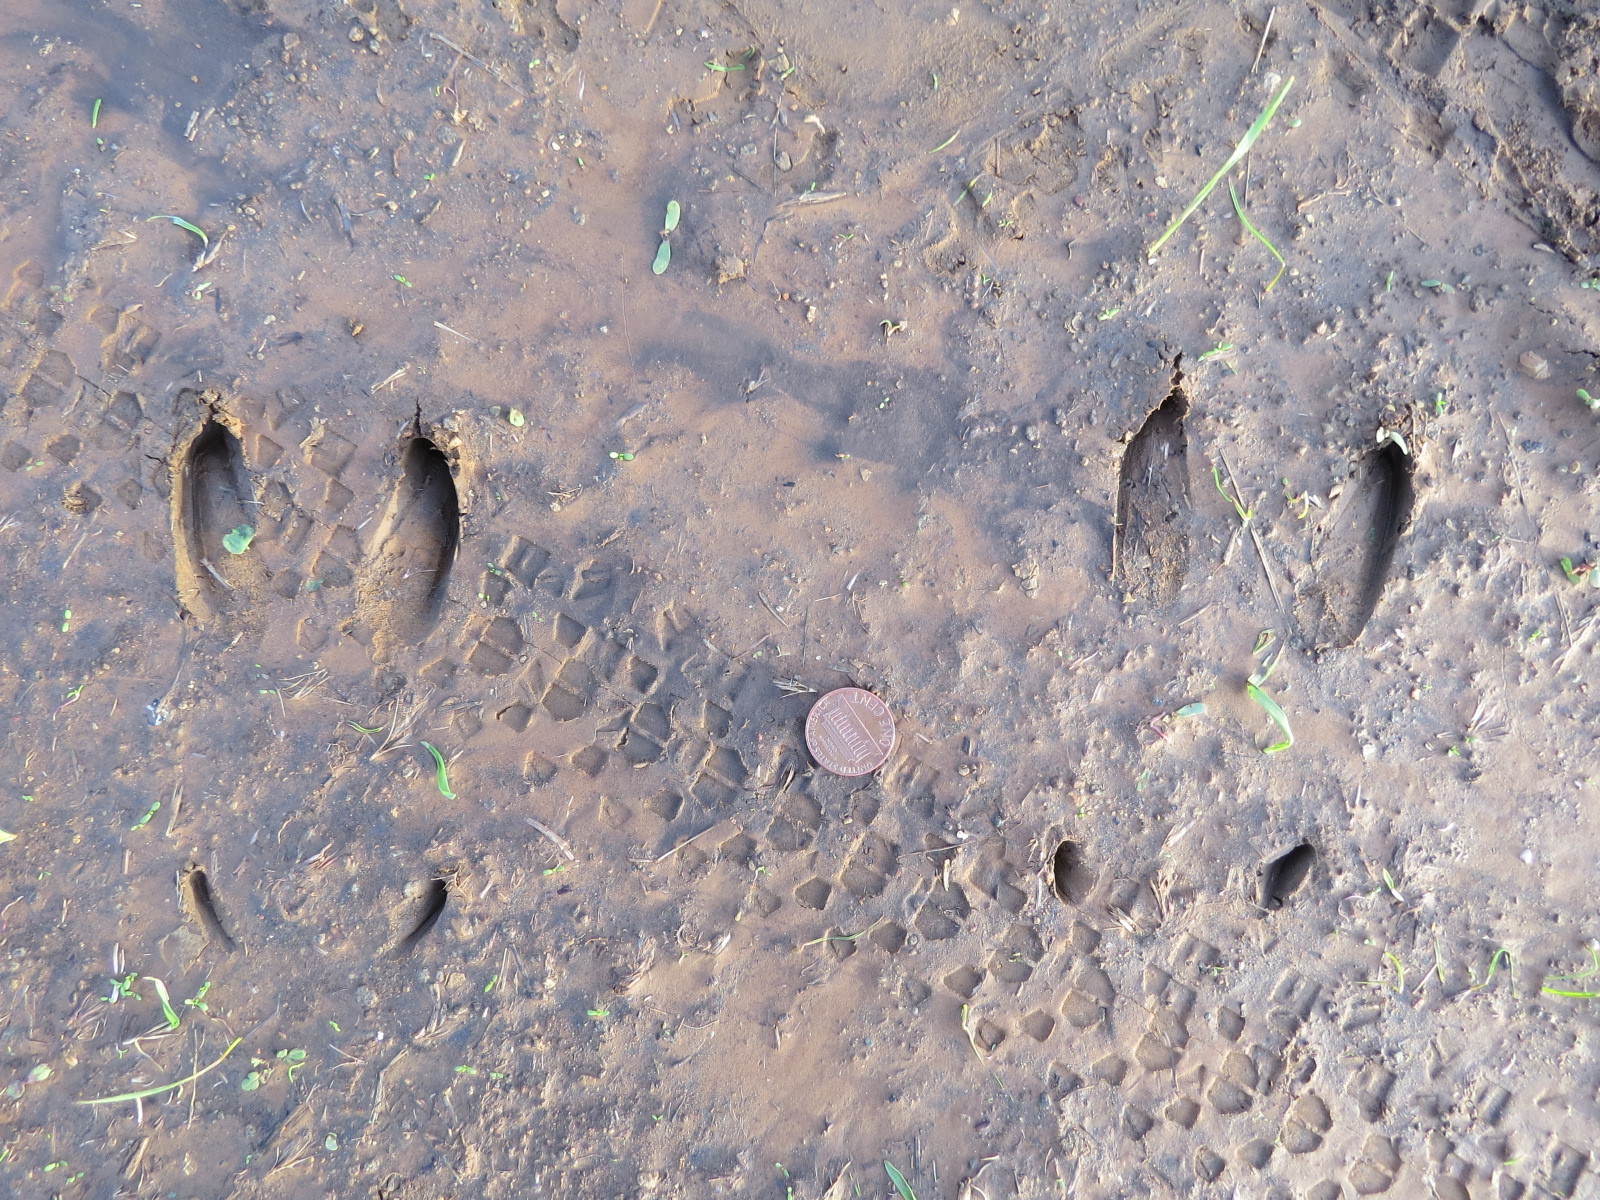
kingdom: Animalia
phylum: Chordata
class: Mammalia
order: Artiodactyla
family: Cervidae
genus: Odocoileus
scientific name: Odocoileus hemionus
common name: Mule deer
